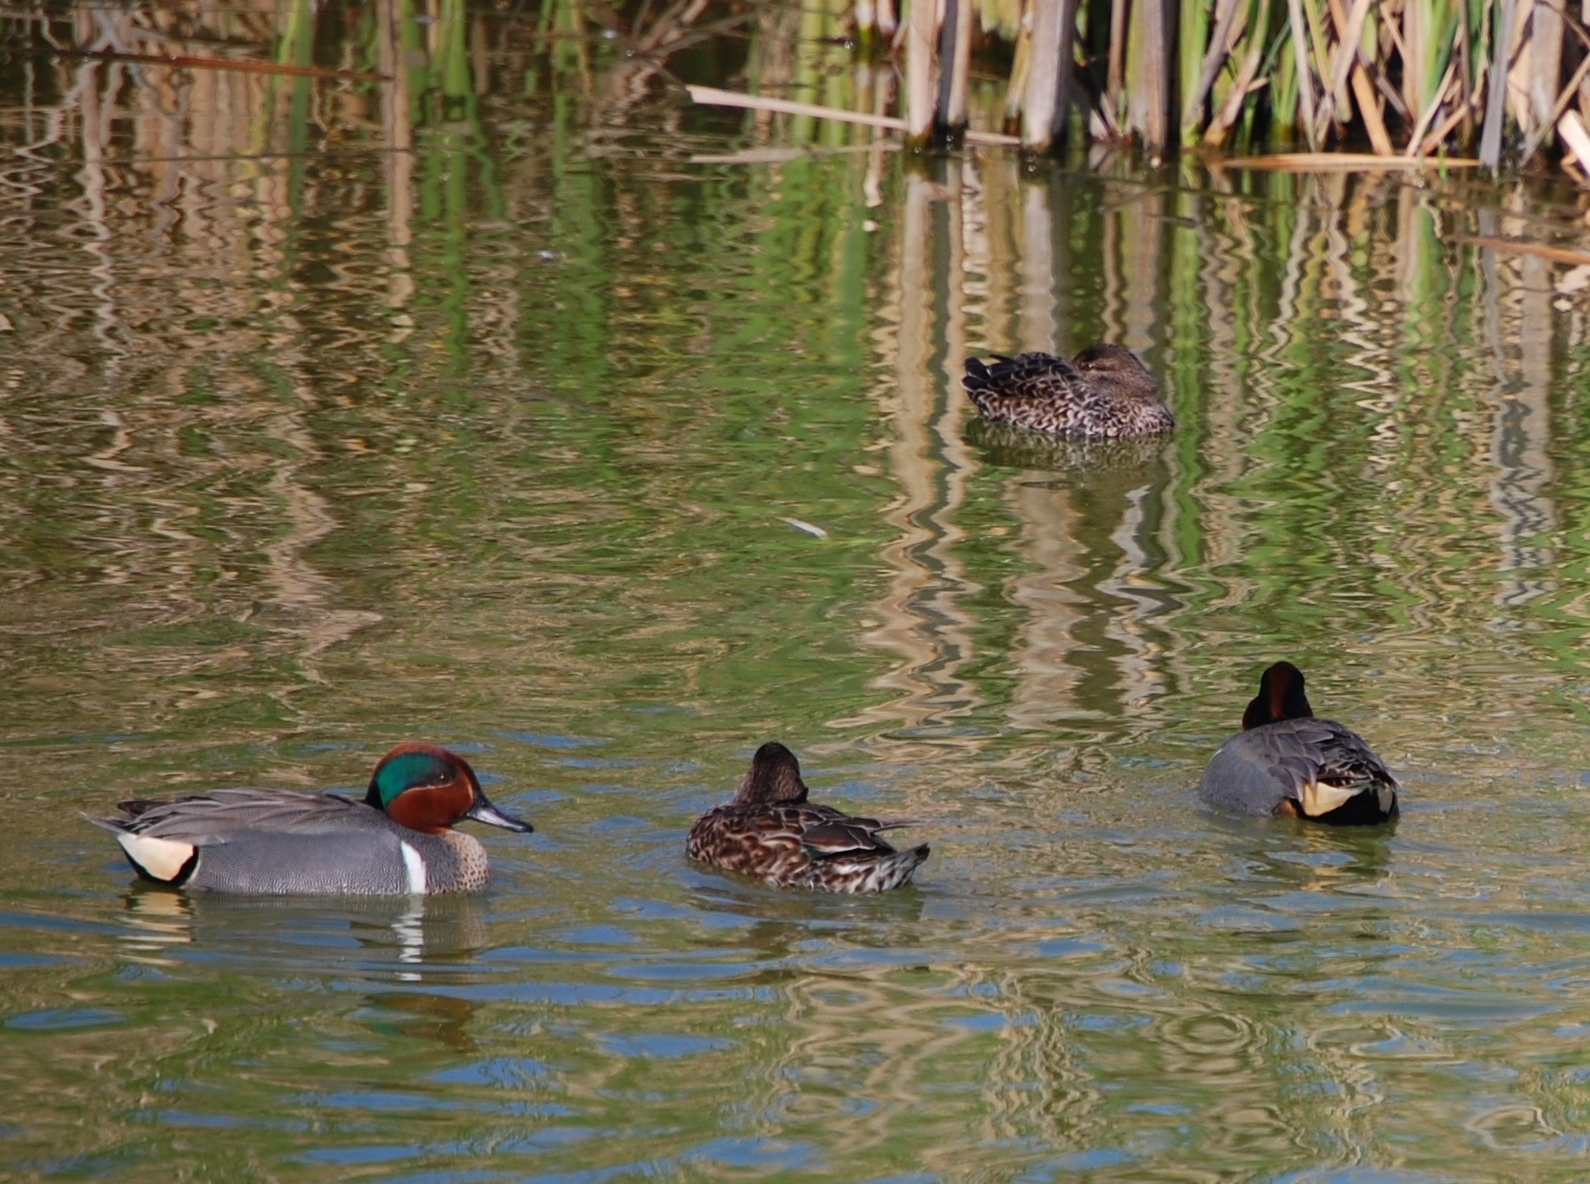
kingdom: Animalia
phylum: Chordata
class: Aves
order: Anseriformes
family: Anatidae
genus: Anas
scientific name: Anas crecca
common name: Eurasian teal
